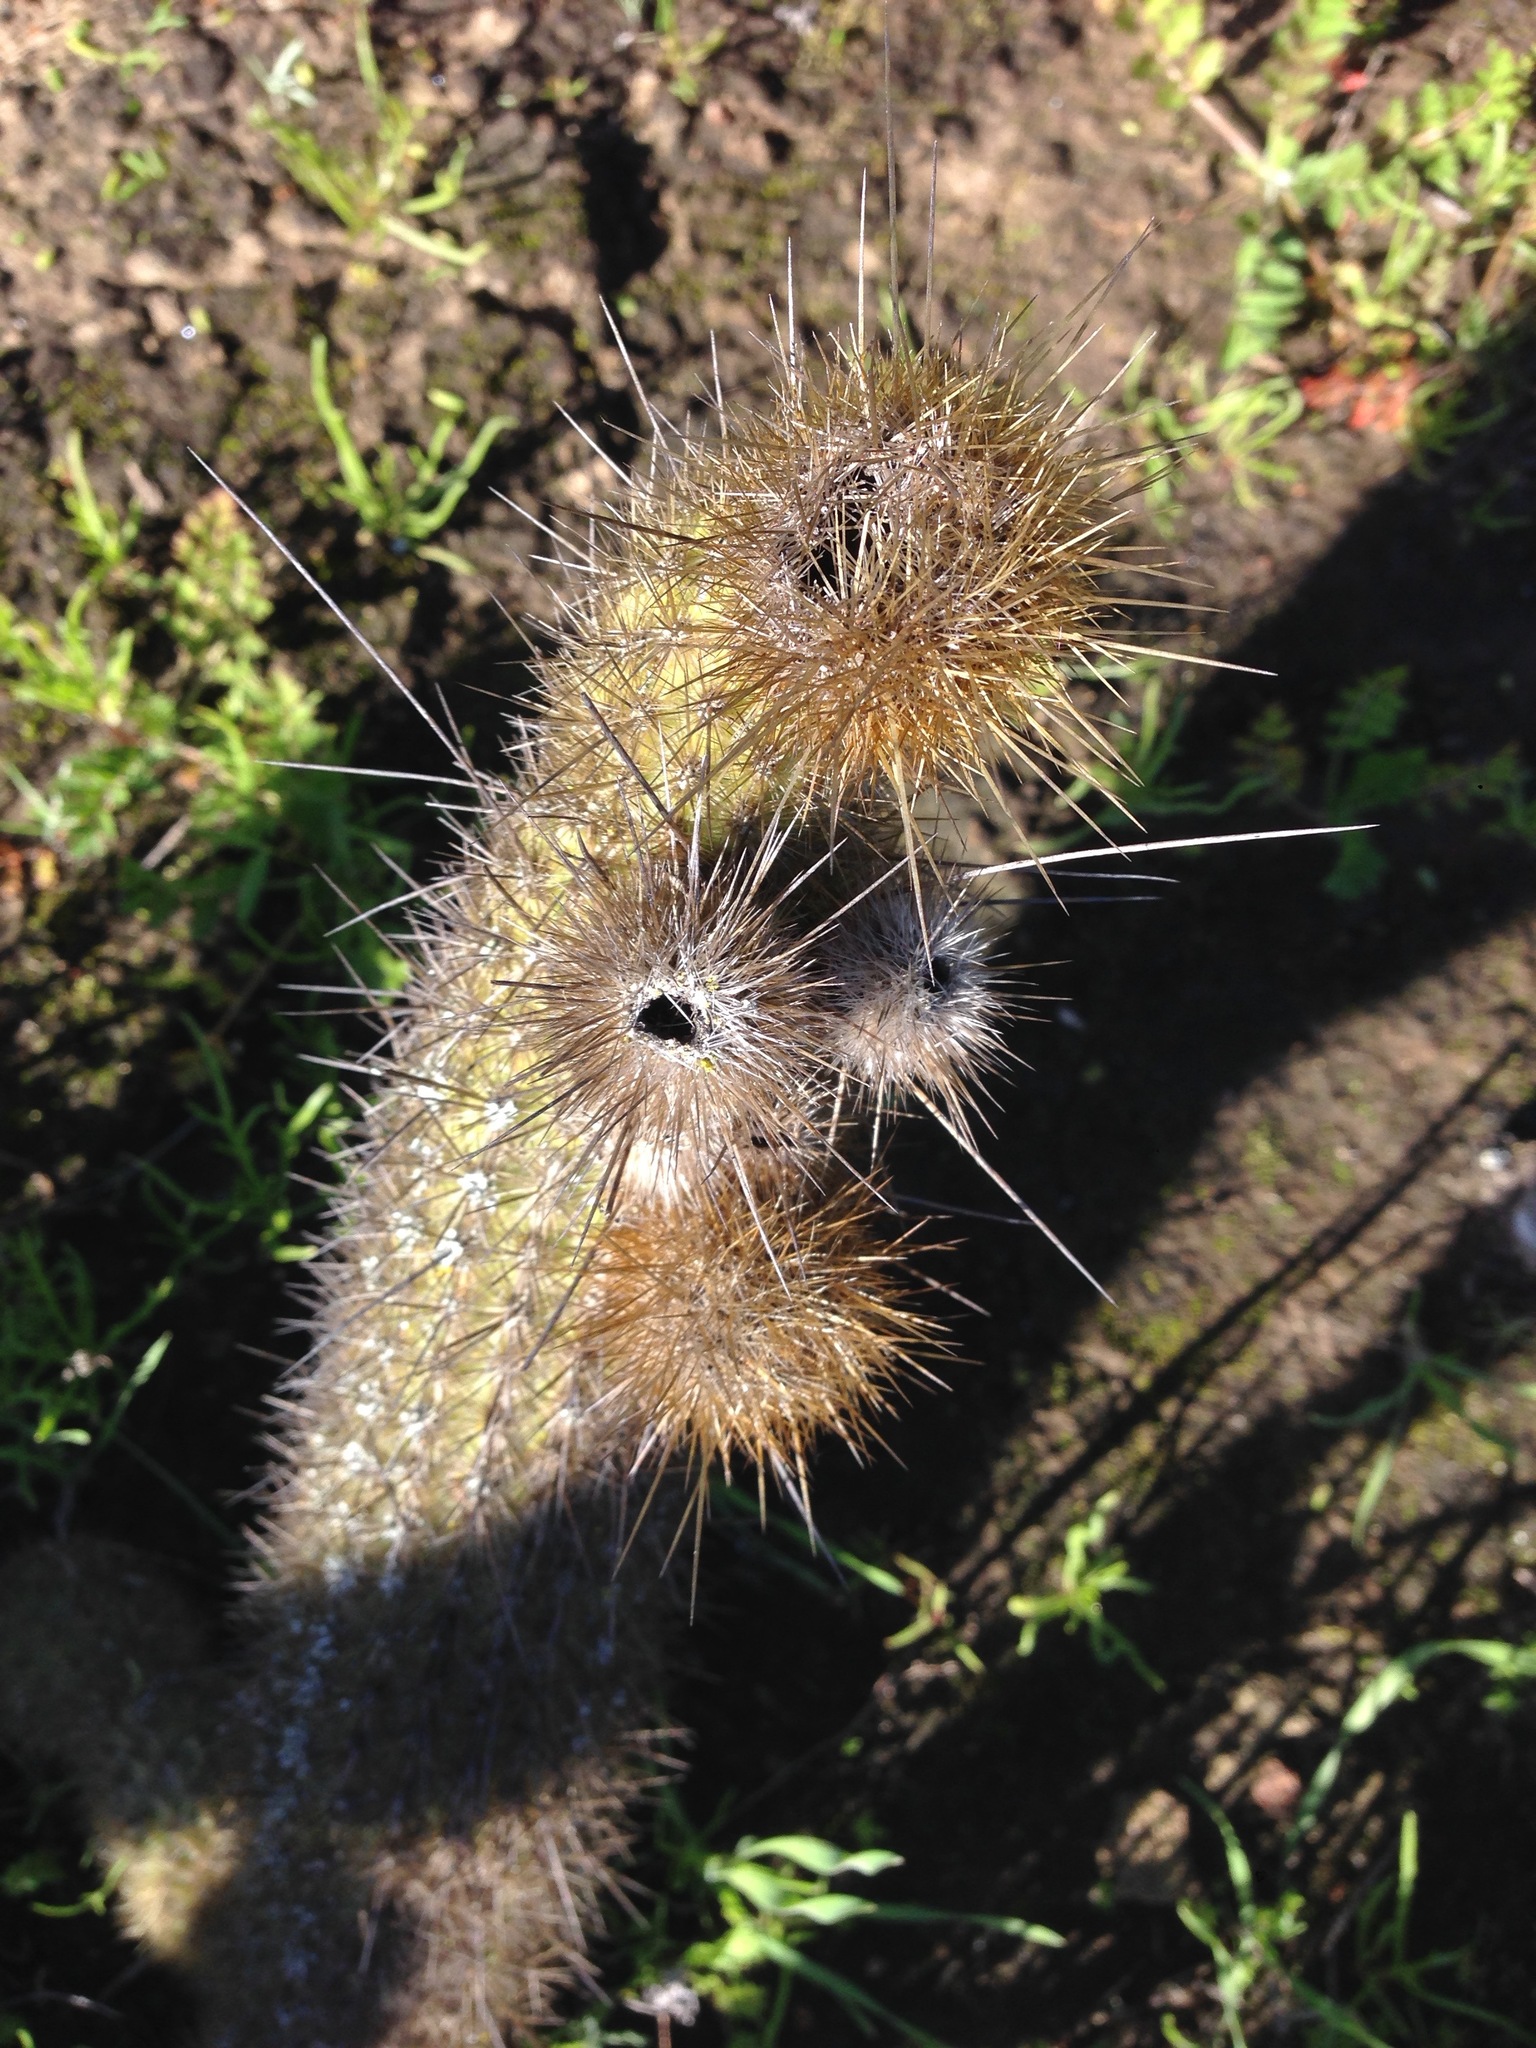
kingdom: Plantae
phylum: Tracheophyta
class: Magnoliopsida
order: Caryophyllales
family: Cactaceae
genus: Bergerocactus
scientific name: Bergerocactus emoryi
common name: Golden snakecactus
